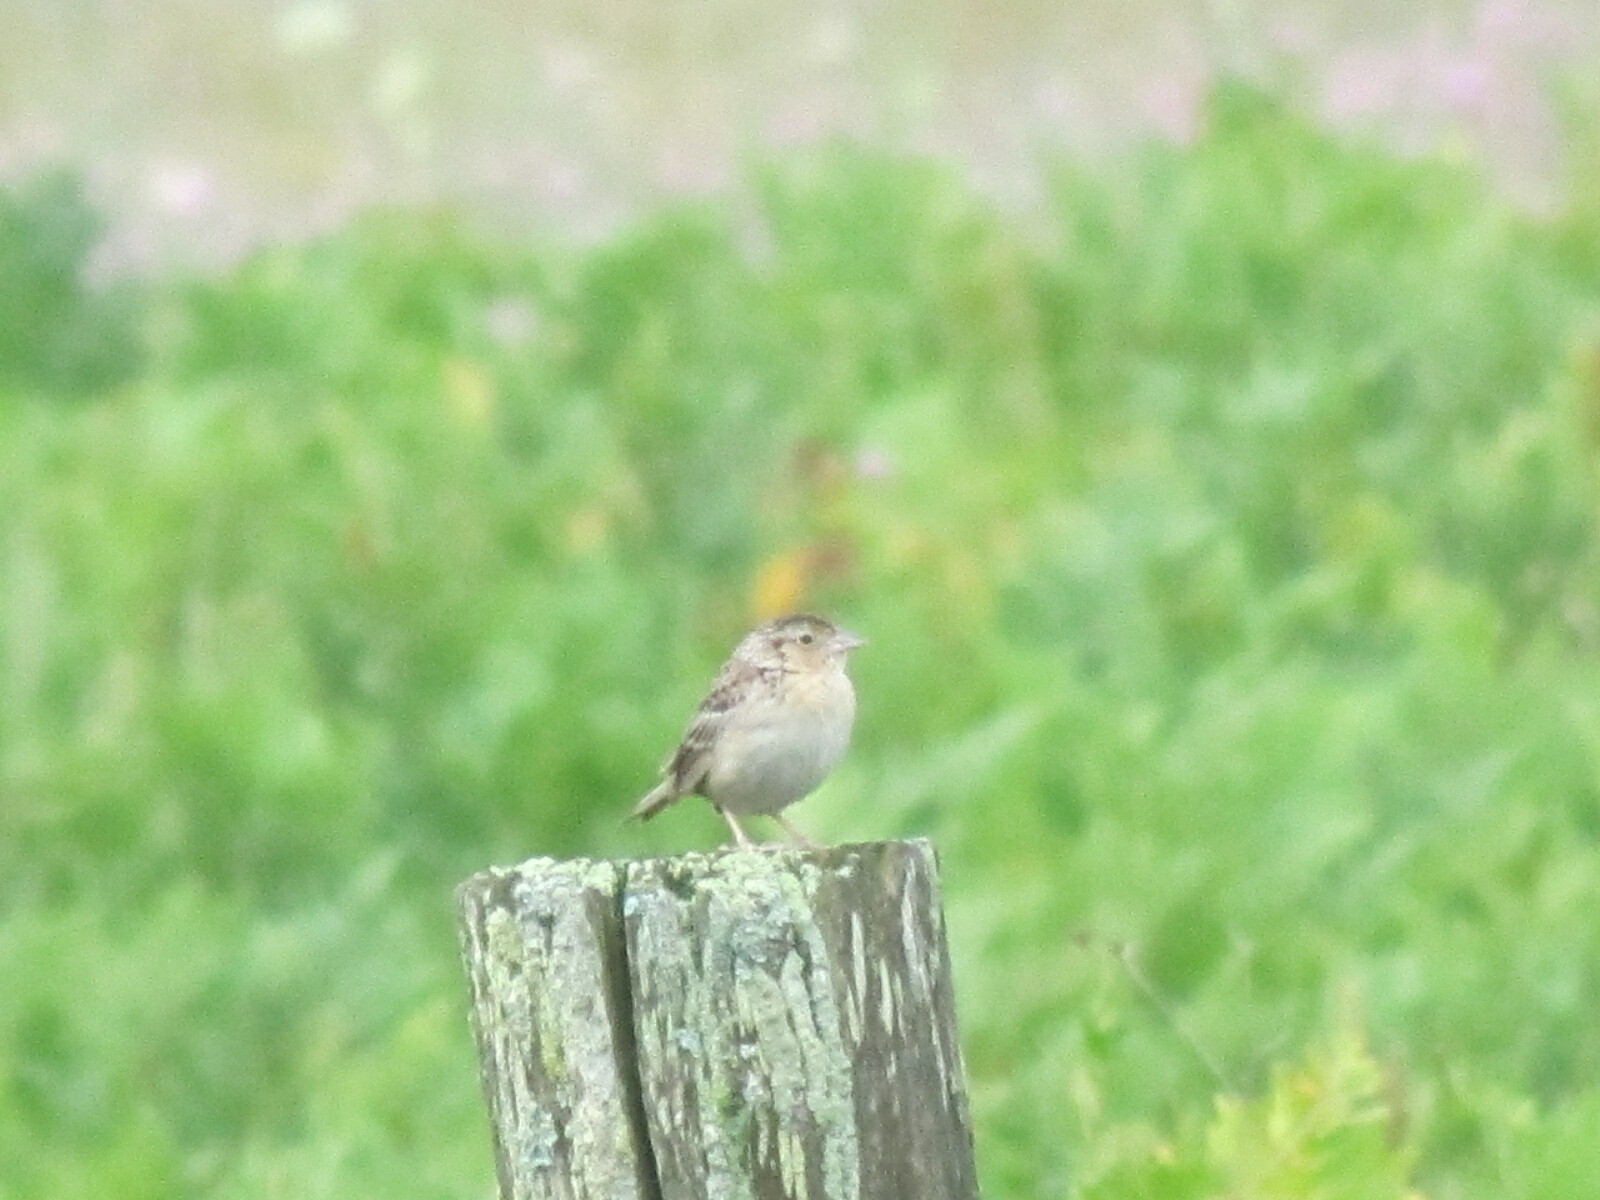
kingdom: Animalia
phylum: Chordata
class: Aves
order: Passeriformes
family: Passerellidae
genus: Ammodramus
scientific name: Ammodramus savannarum
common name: Grasshopper sparrow
